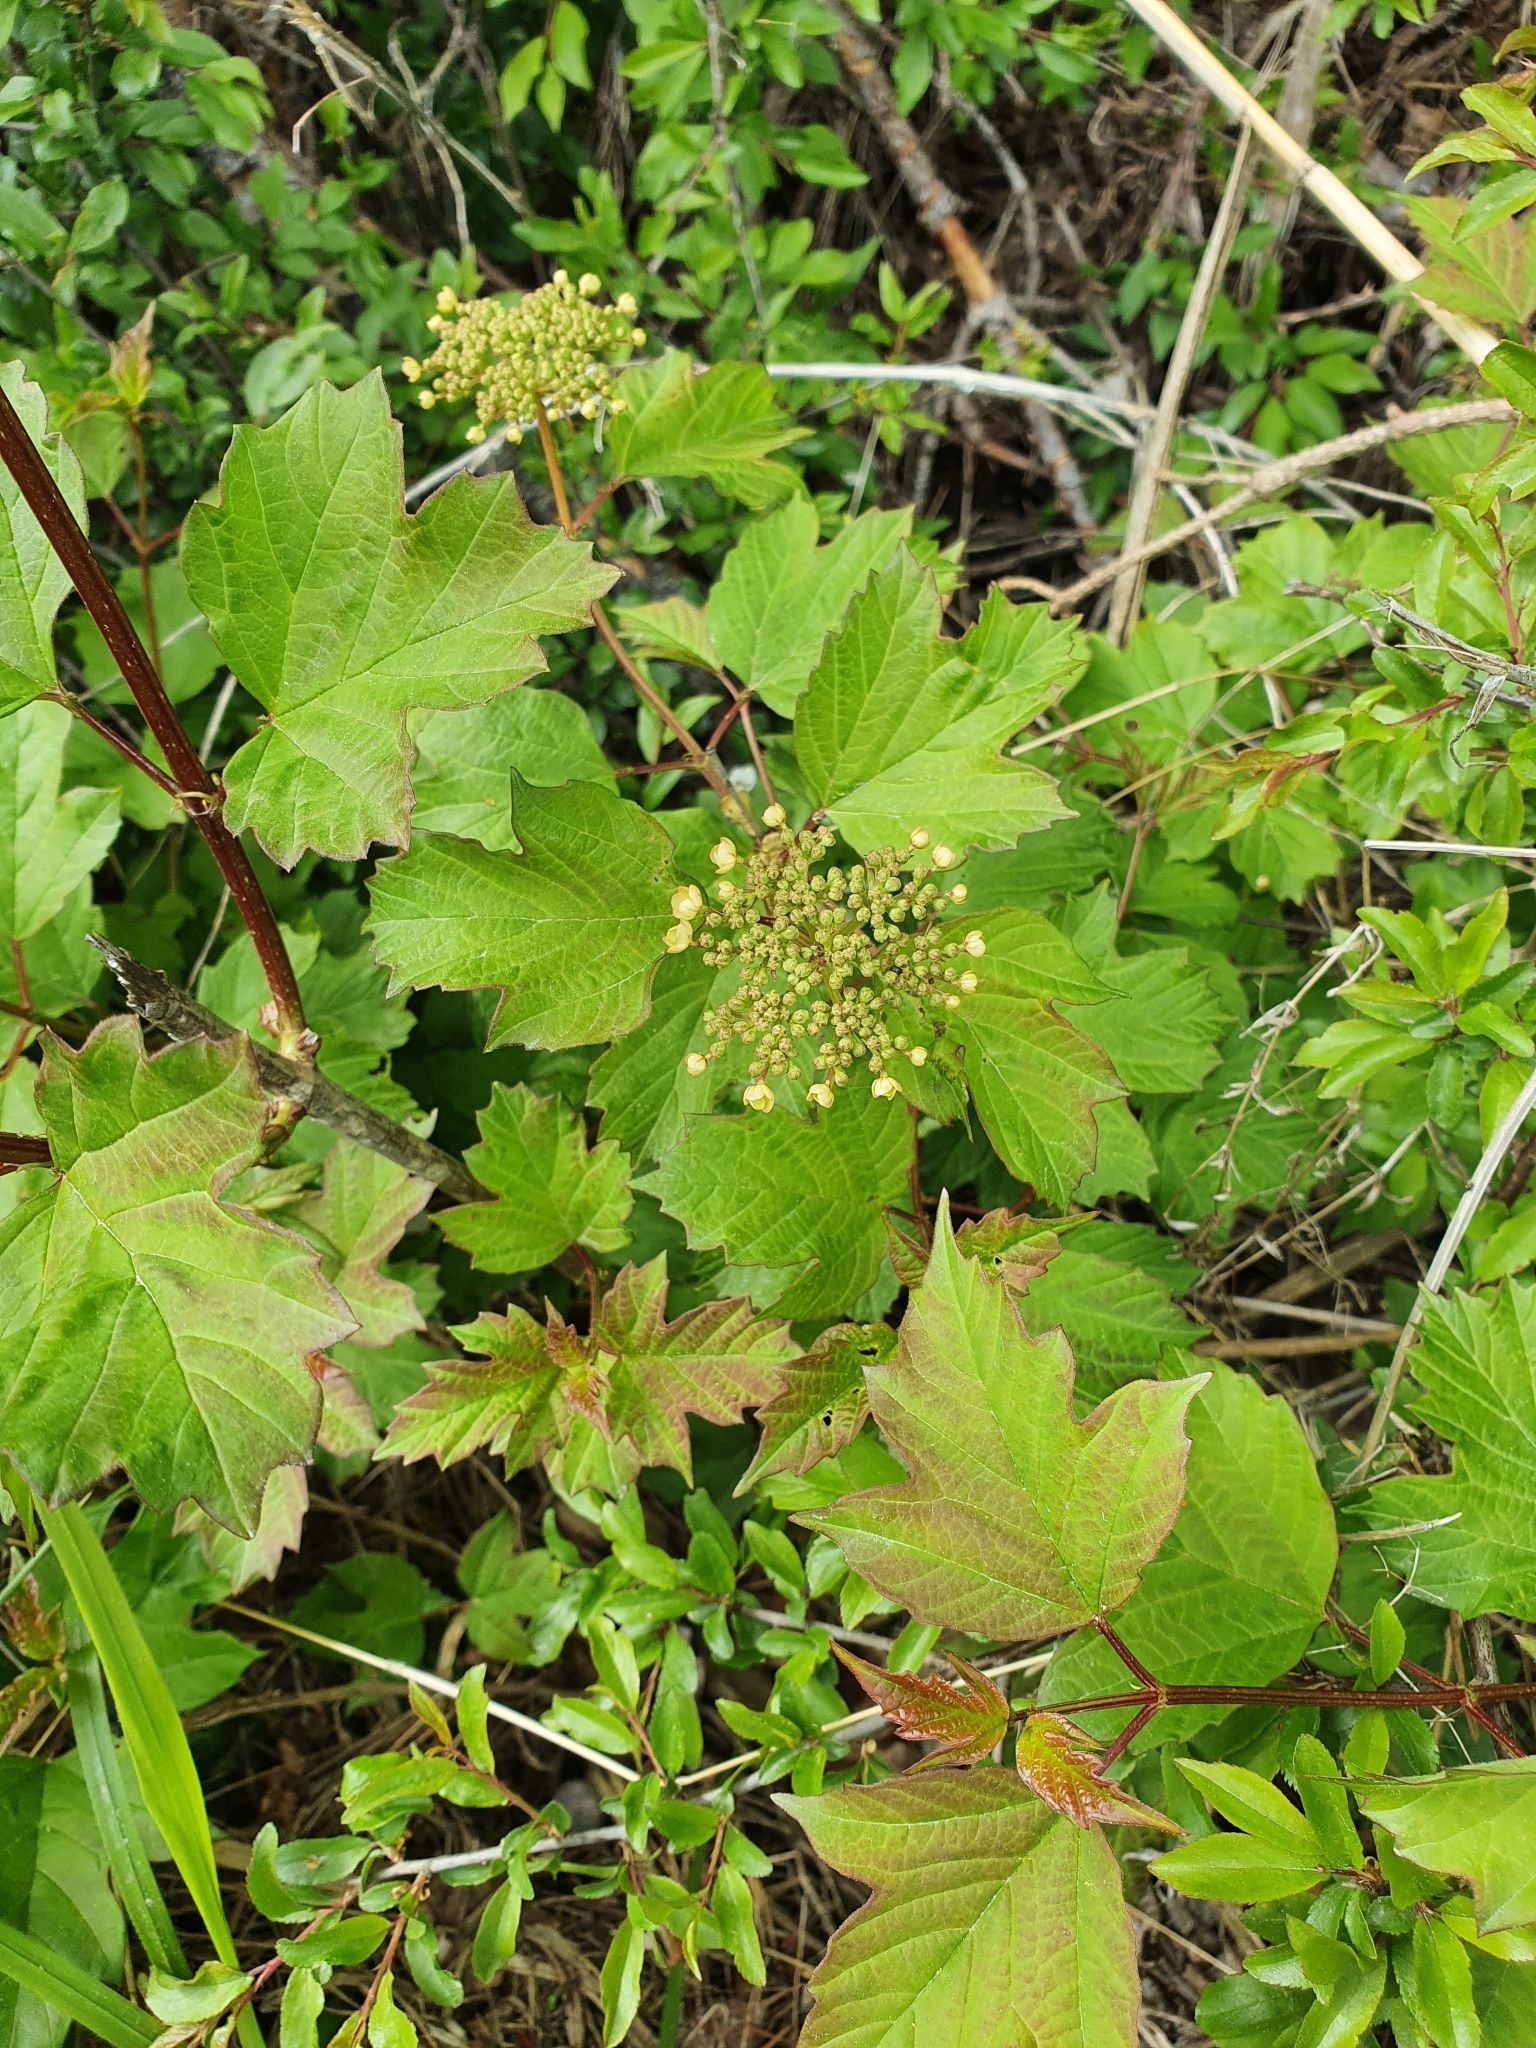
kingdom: Plantae
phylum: Tracheophyta
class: Magnoliopsida
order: Dipsacales
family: Viburnaceae
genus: Viburnum
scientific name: Viburnum opulus
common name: Guelder-rose
